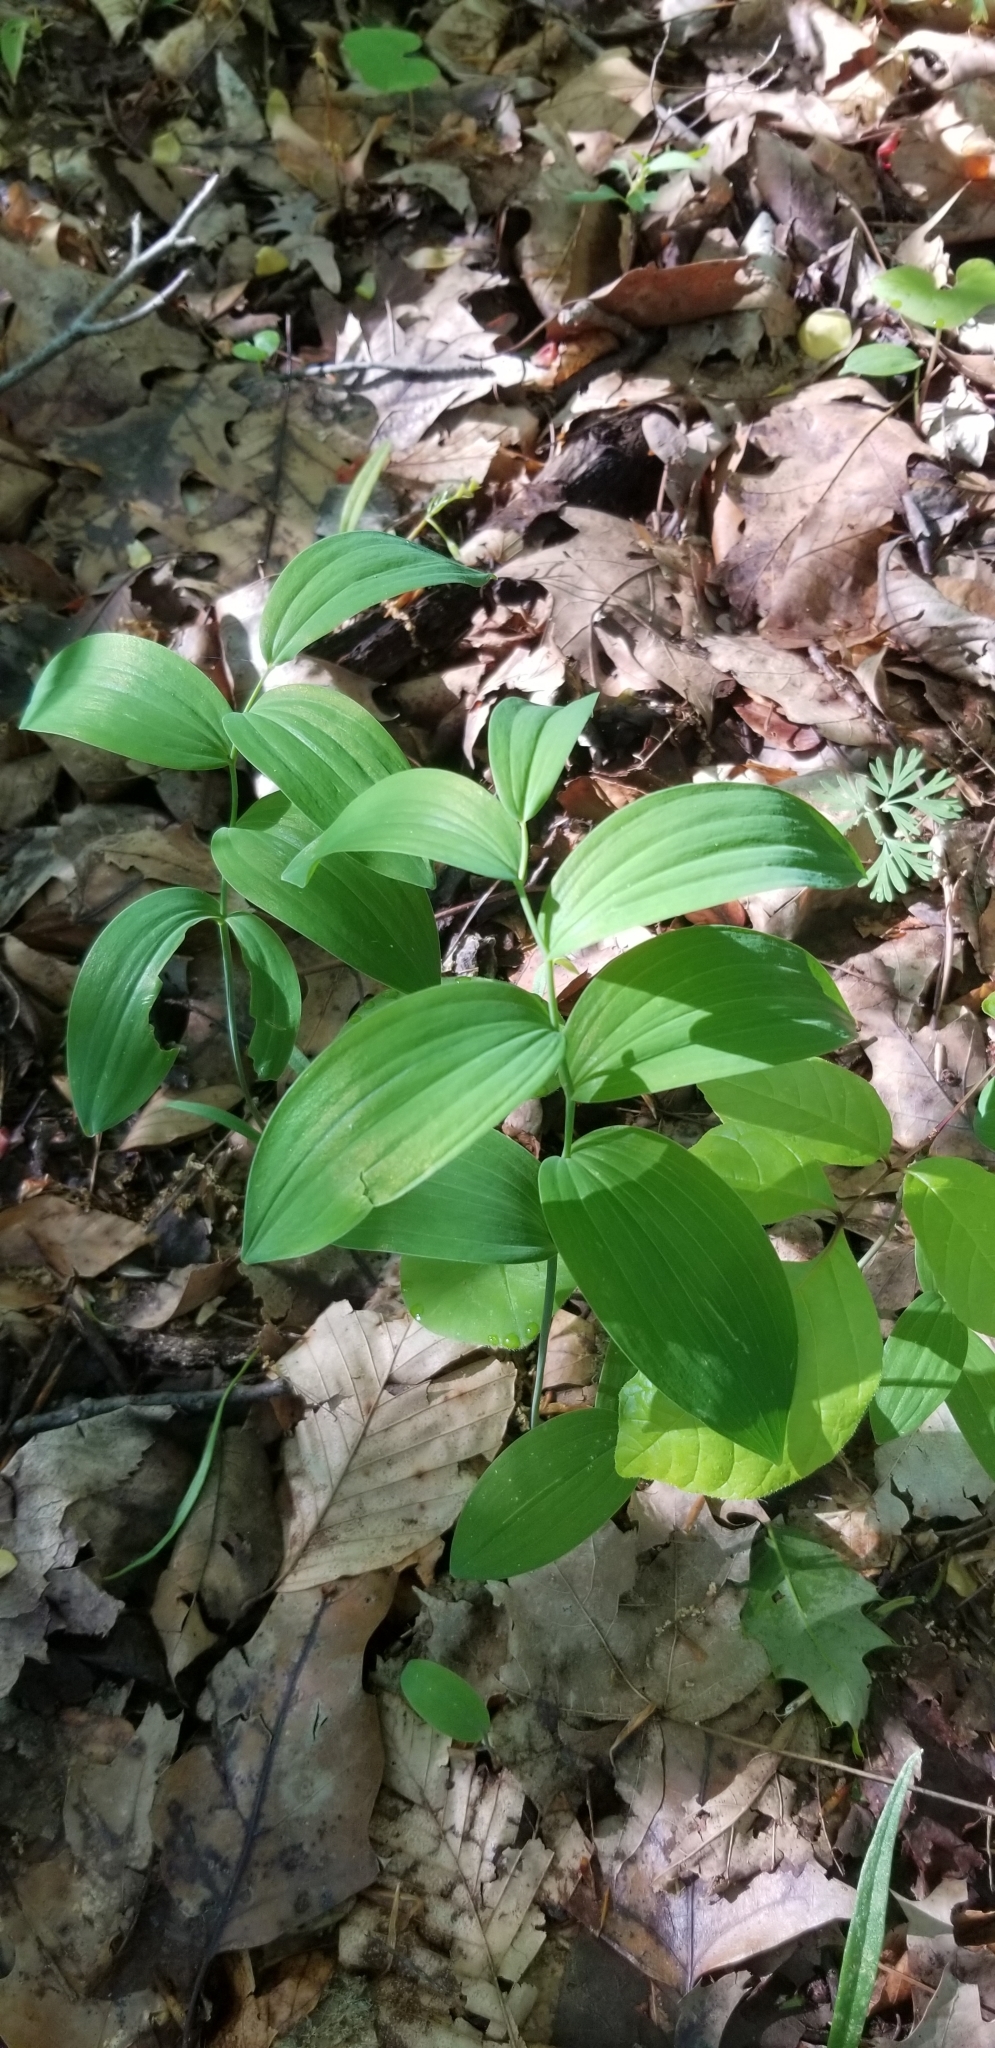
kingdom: Plantae
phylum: Tracheophyta
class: Liliopsida
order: Asparagales
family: Asparagaceae
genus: Polygonatum
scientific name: Polygonatum biflorum
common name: American solomon's-seal
